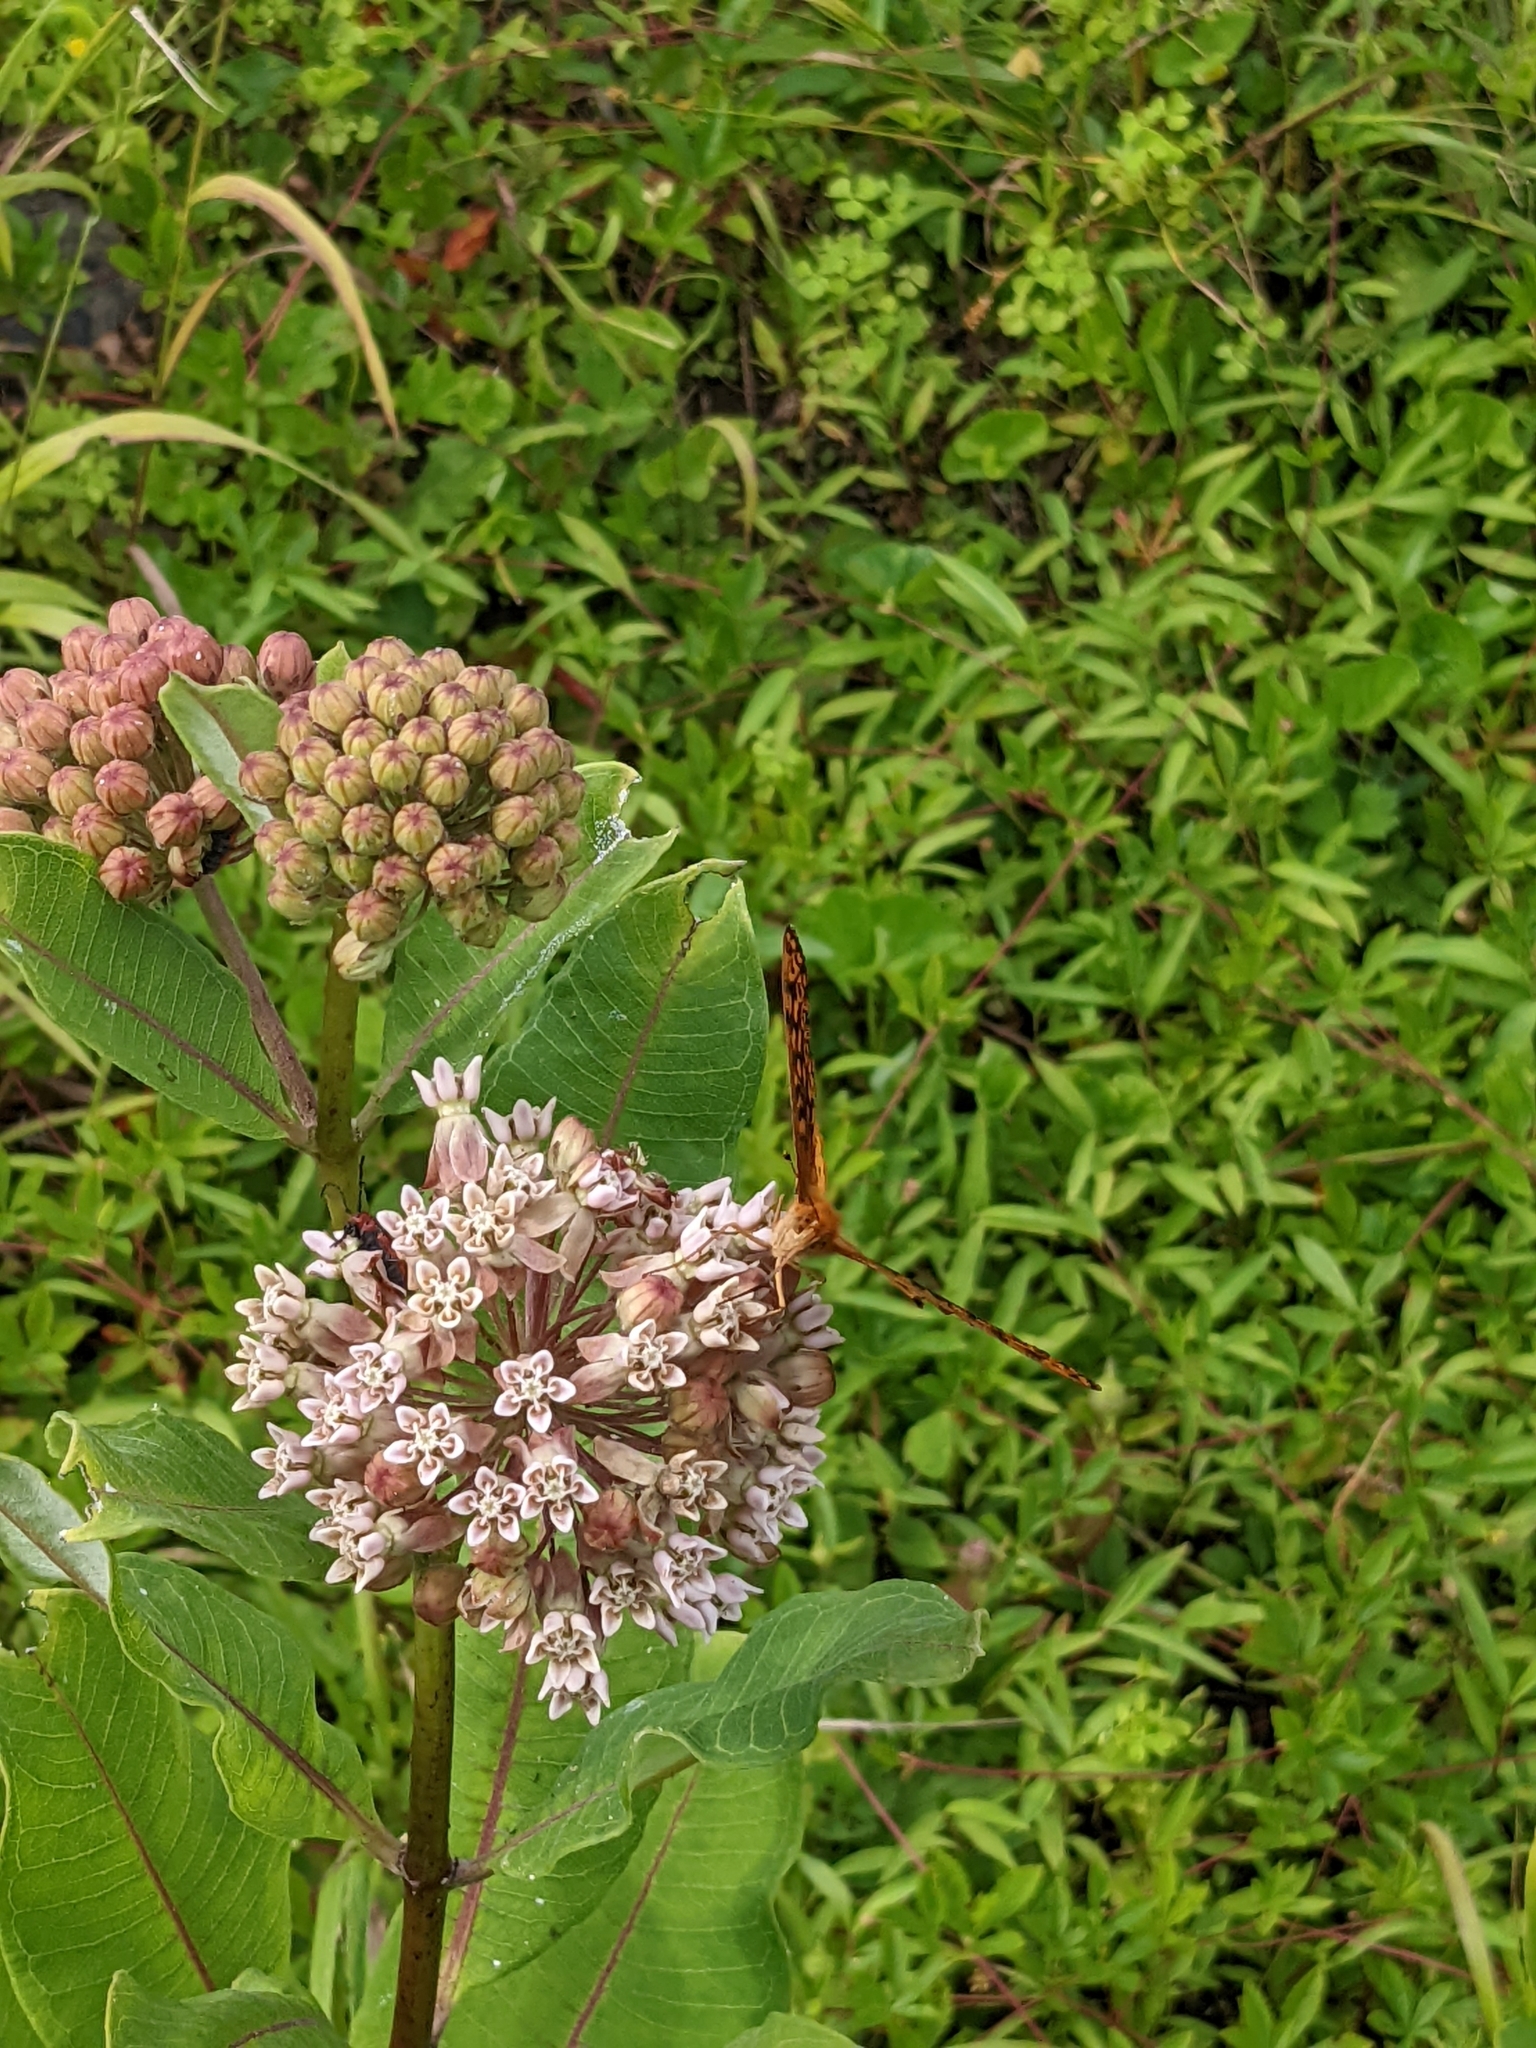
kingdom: Plantae
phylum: Tracheophyta
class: Magnoliopsida
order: Gentianales
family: Apocynaceae
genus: Asclepias
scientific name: Asclepias syriaca
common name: Common milkweed
